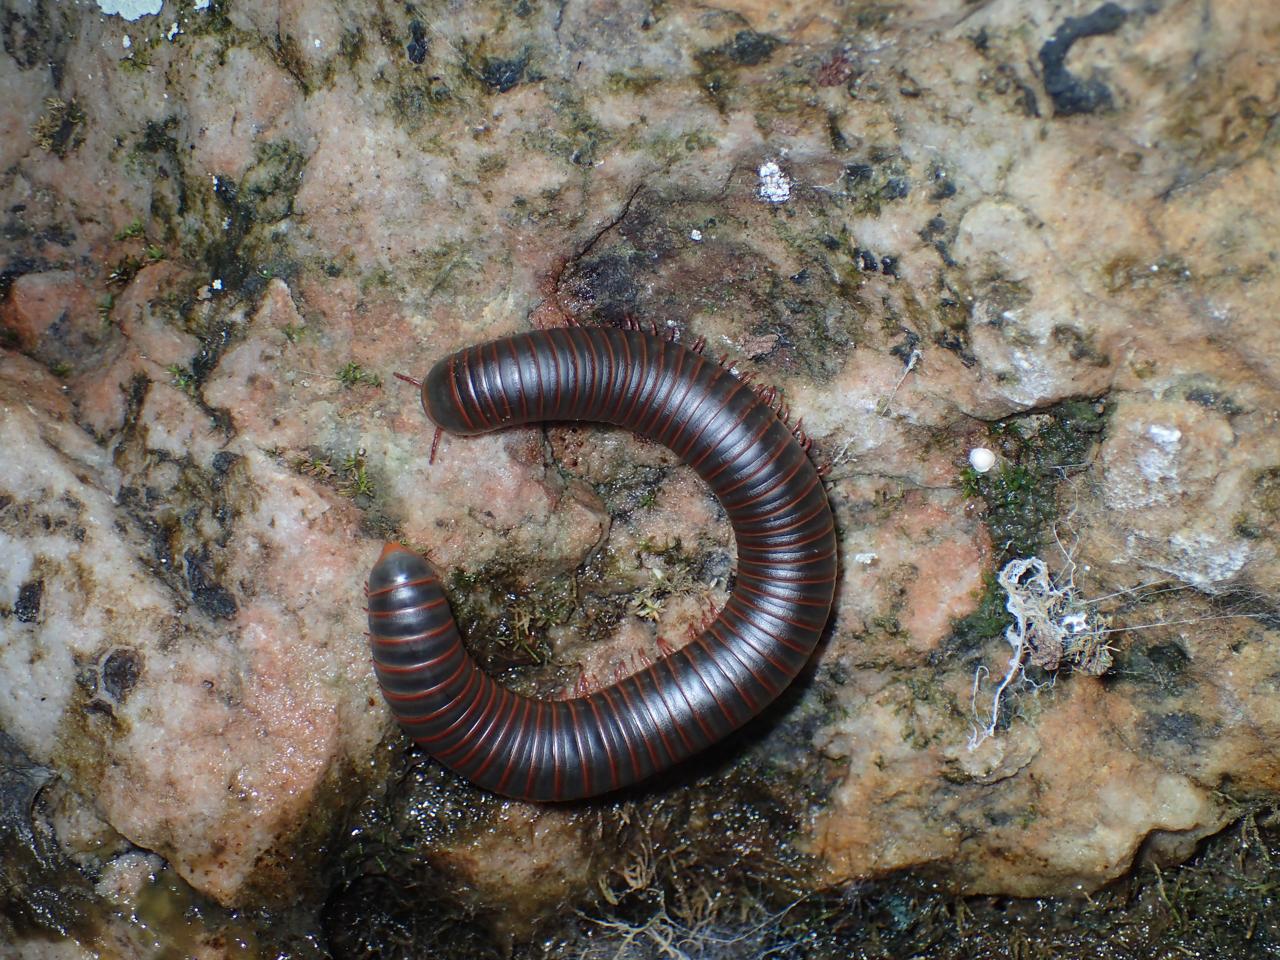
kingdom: Animalia
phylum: Arthropoda
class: Diplopoda
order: Spirobolida
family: Spirobolidae
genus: Narceus
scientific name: Narceus
